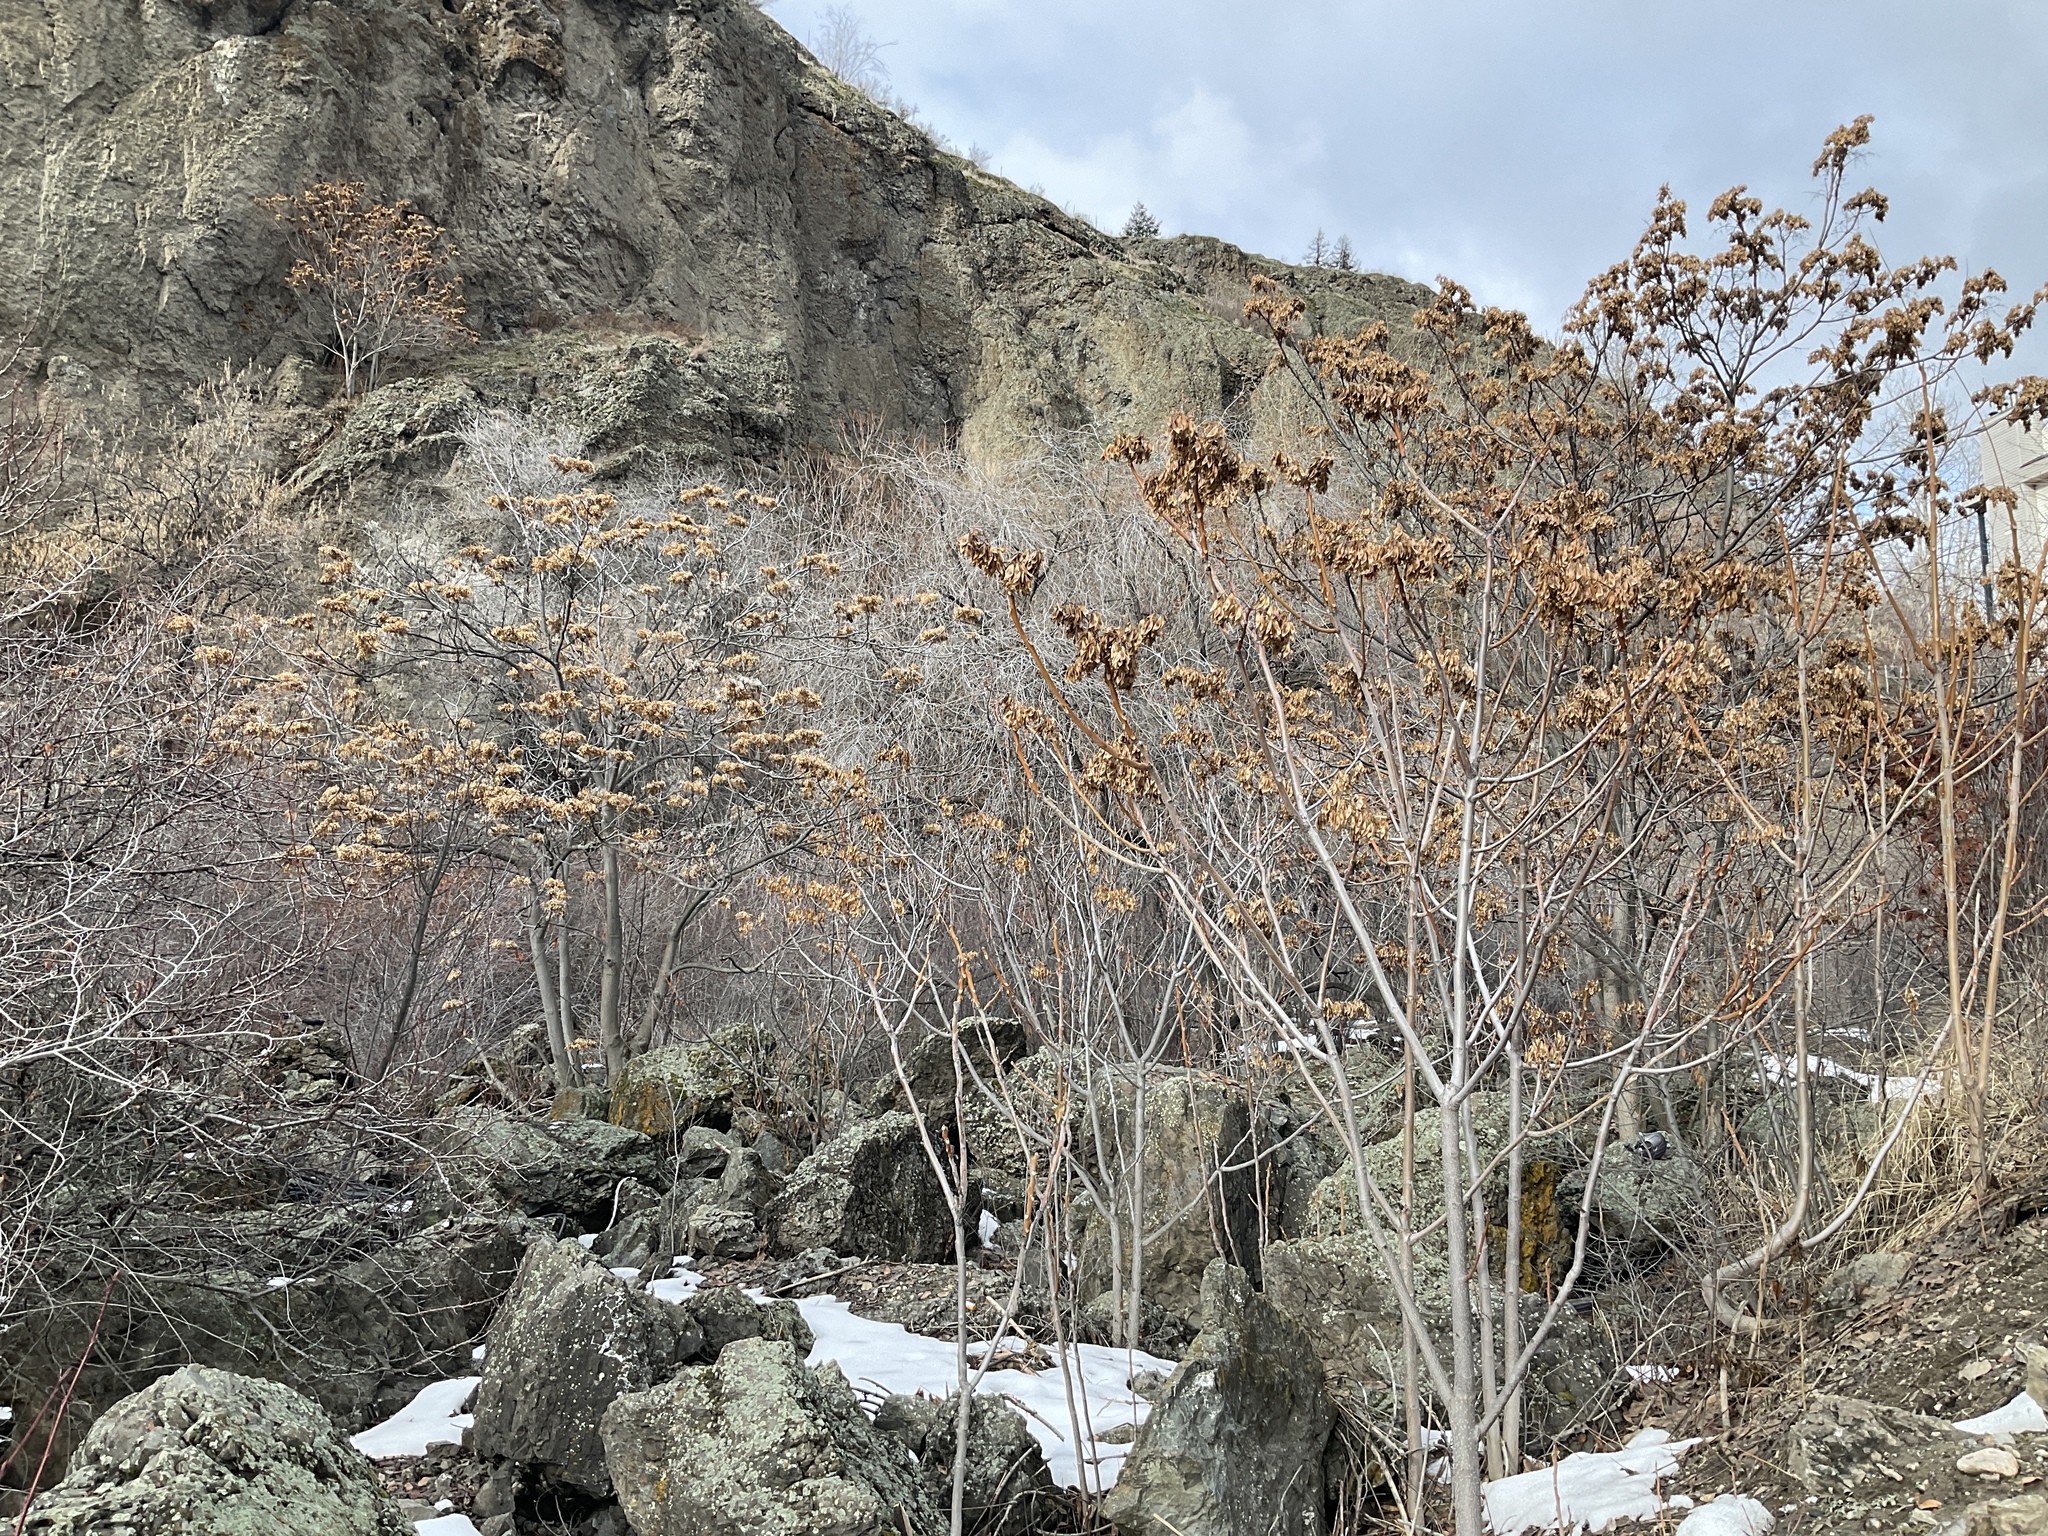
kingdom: Plantae
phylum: Tracheophyta
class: Magnoliopsida
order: Sapindales
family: Simaroubaceae
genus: Ailanthus
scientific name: Ailanthus altissima
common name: Tree-of-heaven
